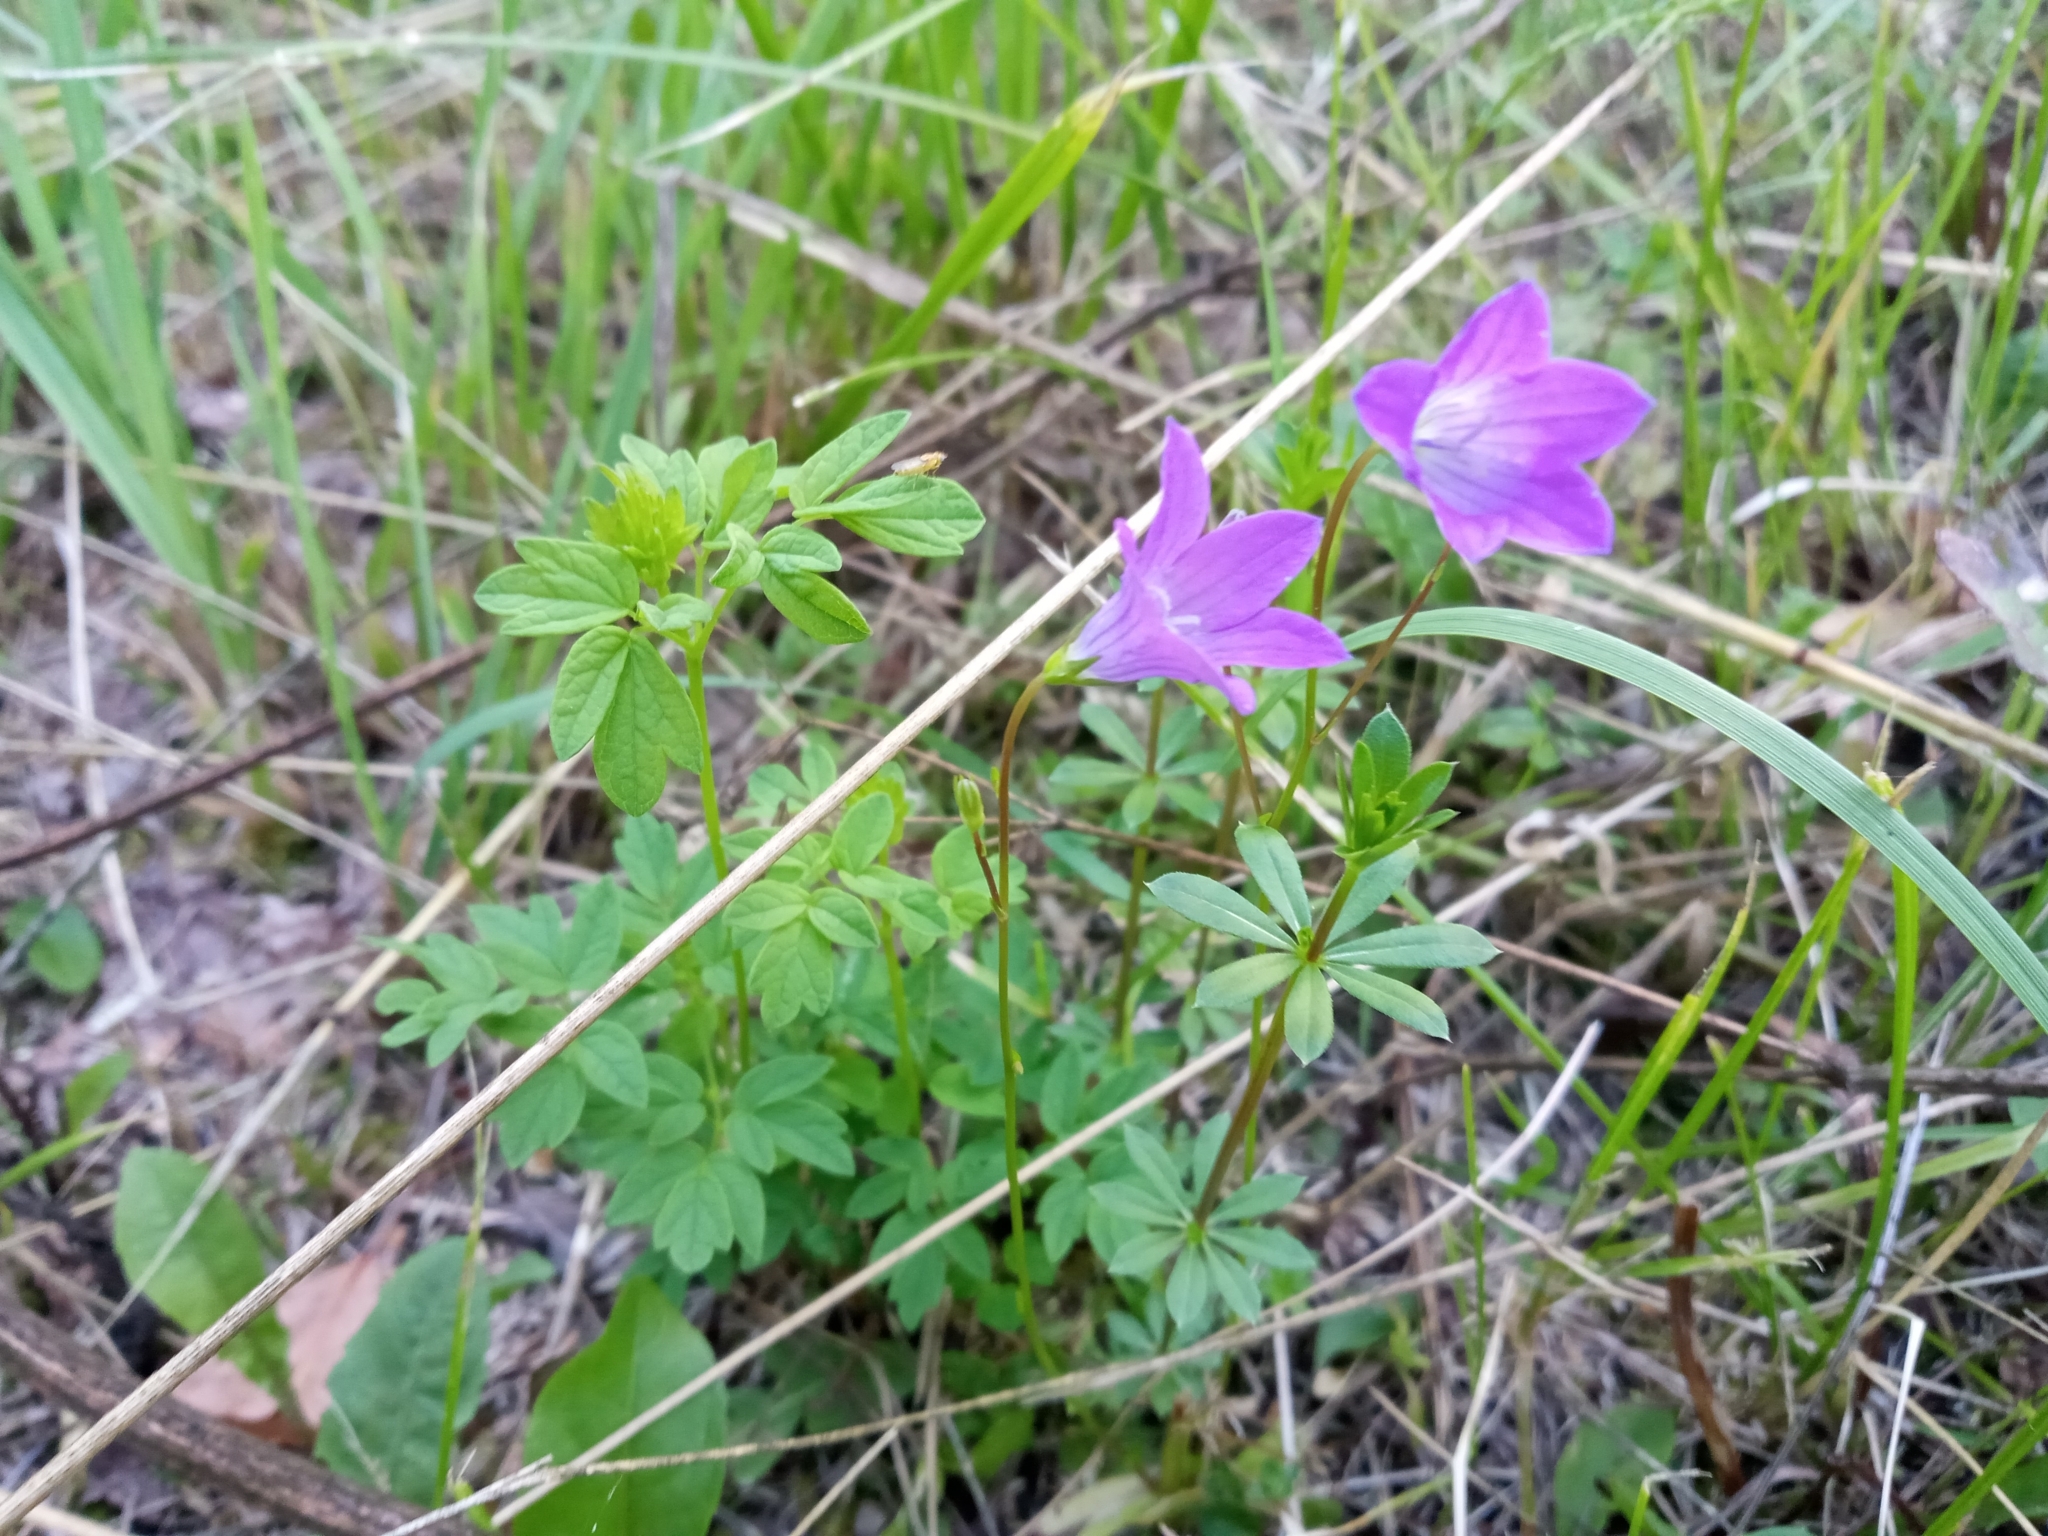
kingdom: Plantae
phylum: Tracheophyta
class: Magnoliopsida
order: Asterales
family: Campanulaceae
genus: Campanula
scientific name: Campanula patula
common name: Spreading bellflower
